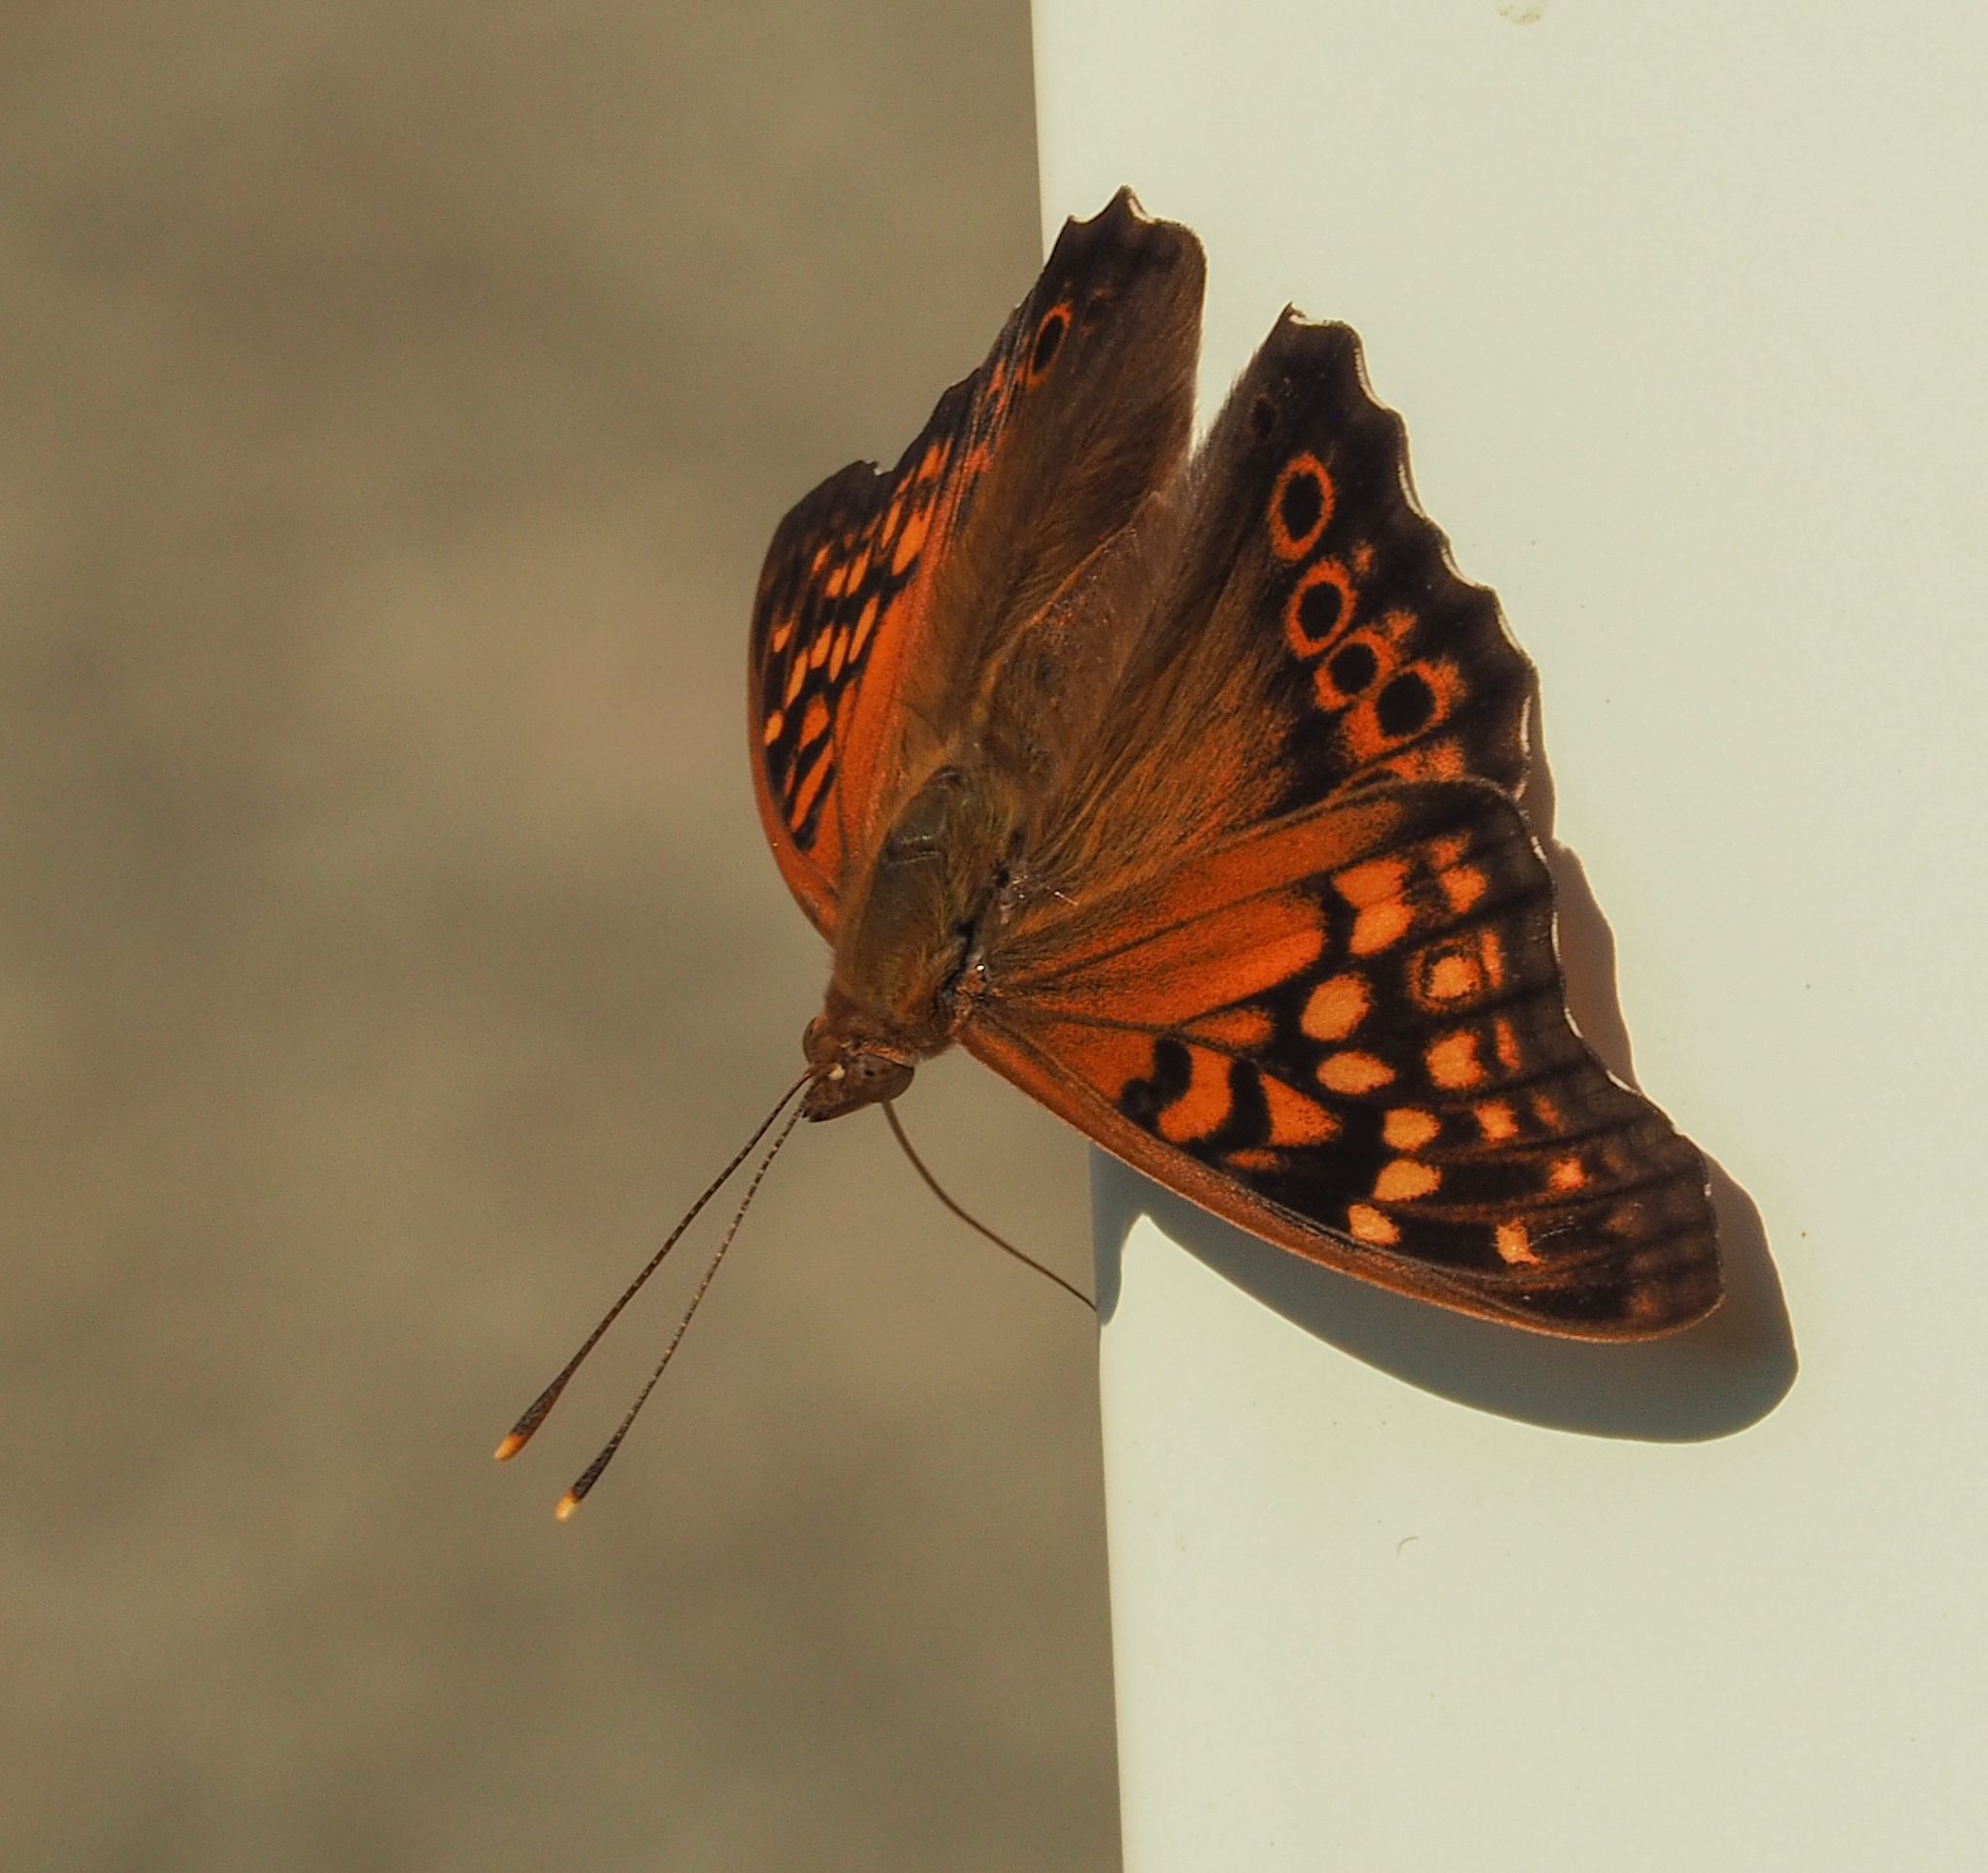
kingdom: Animalia
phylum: Arthropoda
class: Insecta
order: Lepidoptera
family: Nymphalidae
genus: Asterocampa
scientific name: Asterocampa clyton
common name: Tawny emperor
